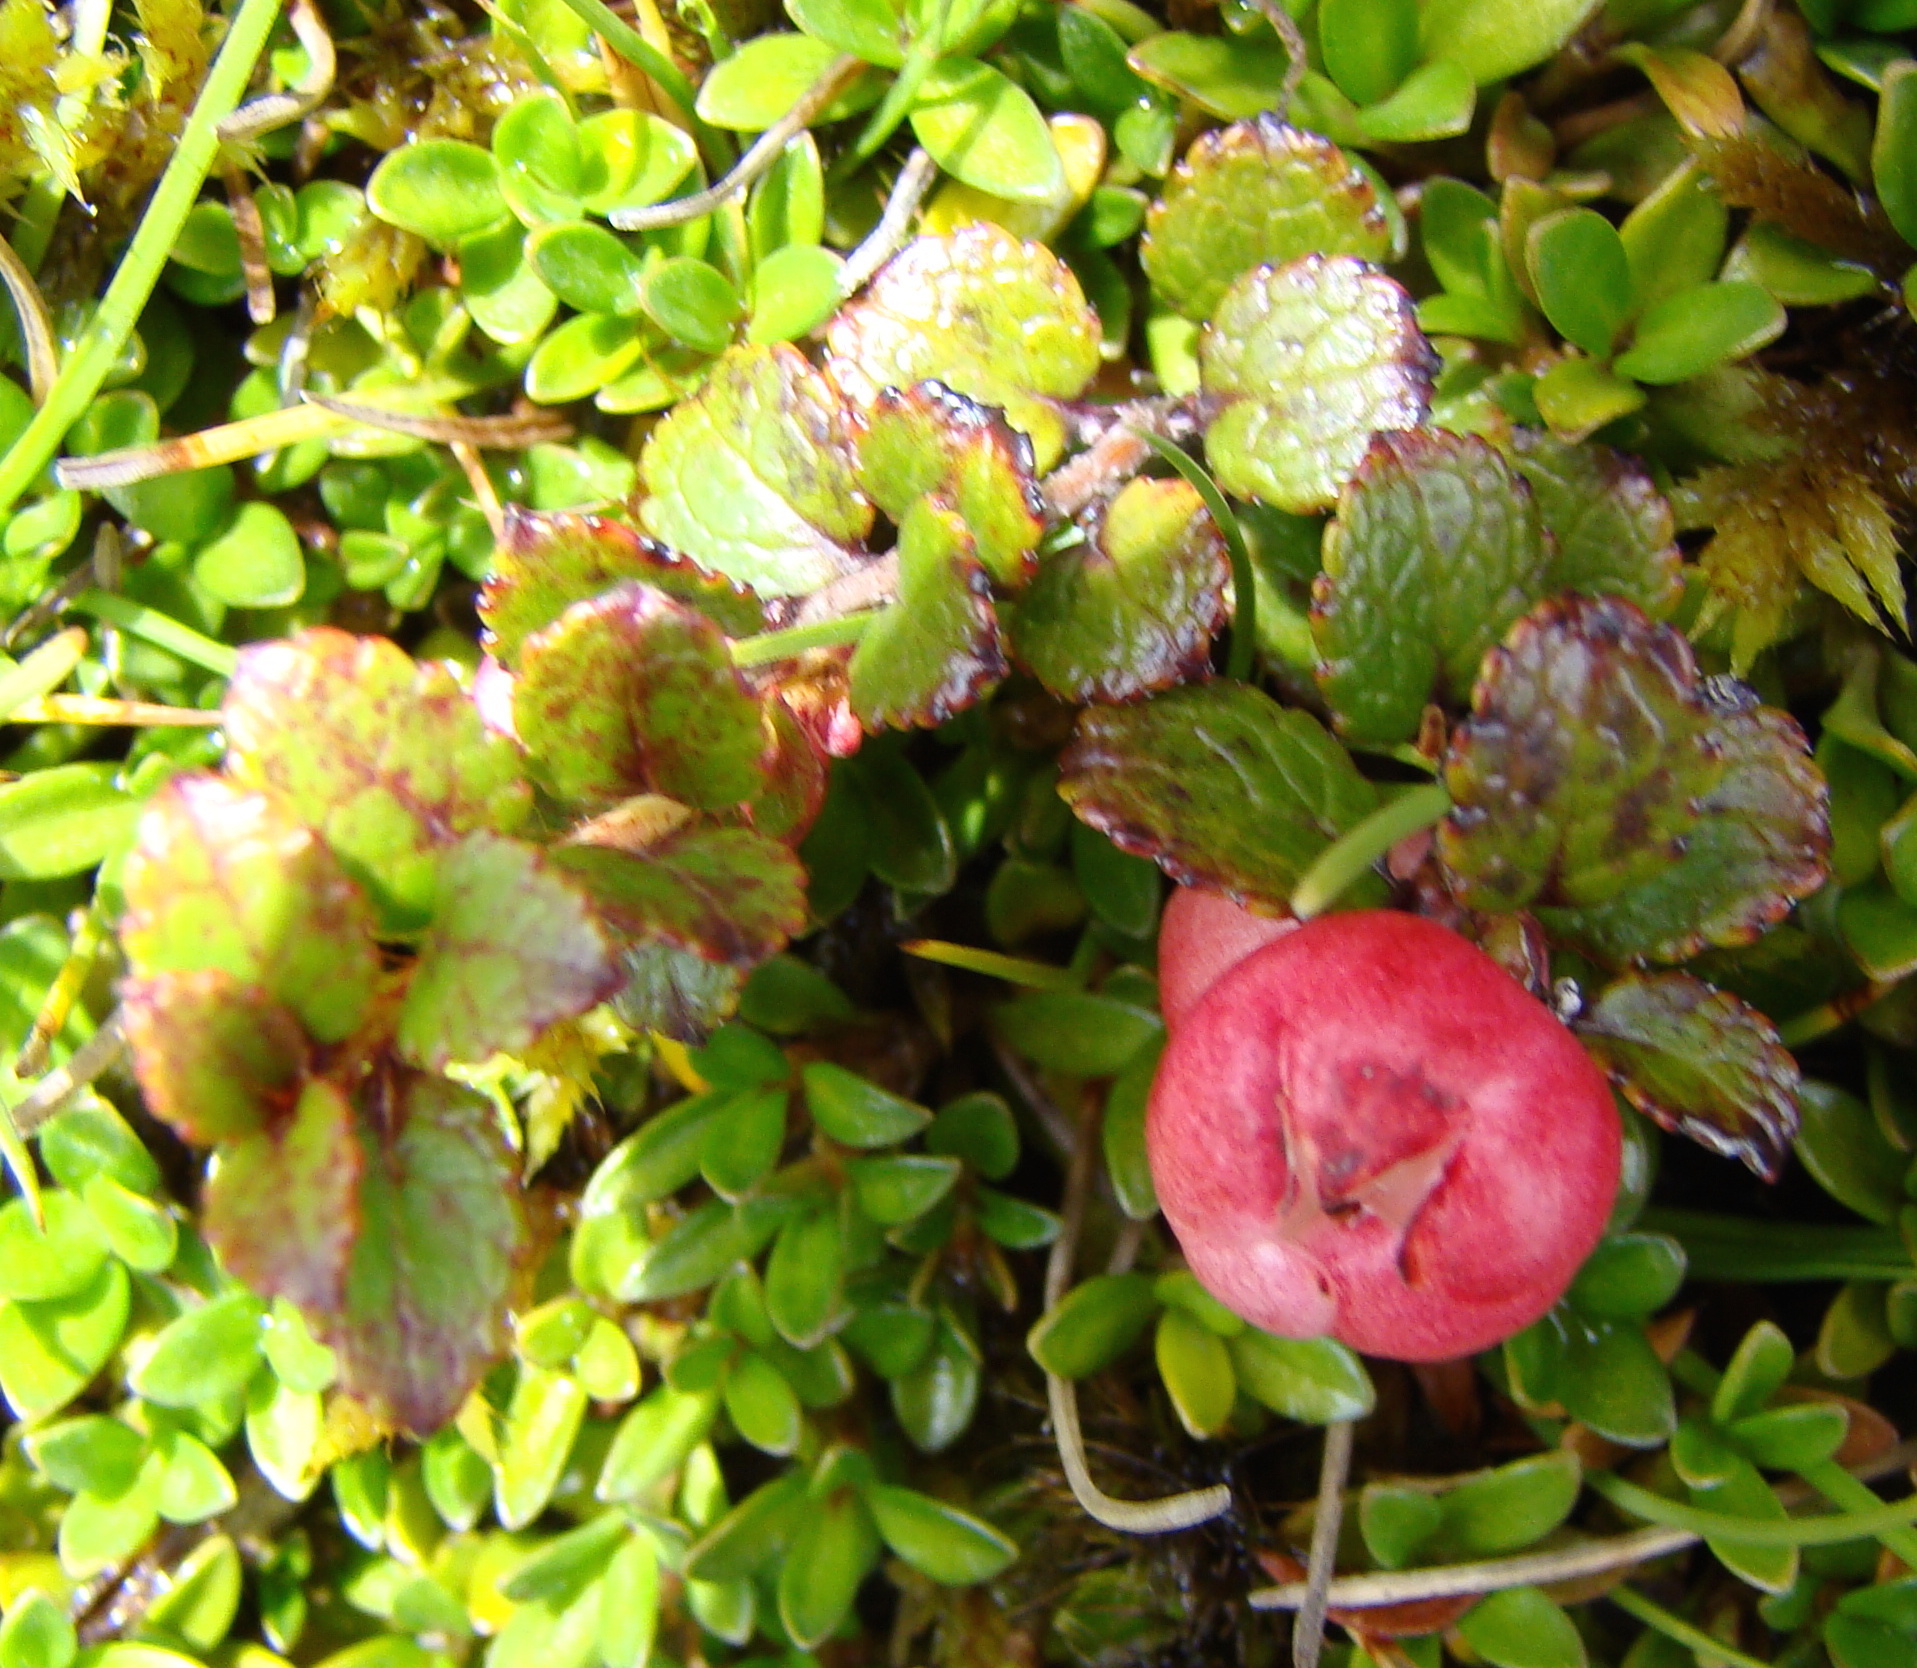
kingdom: Plantae
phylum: Tracheophyta
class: Magnoliopsida
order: Ericales
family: Ericaceae
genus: Gaultheria
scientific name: Gaultheria depressa
